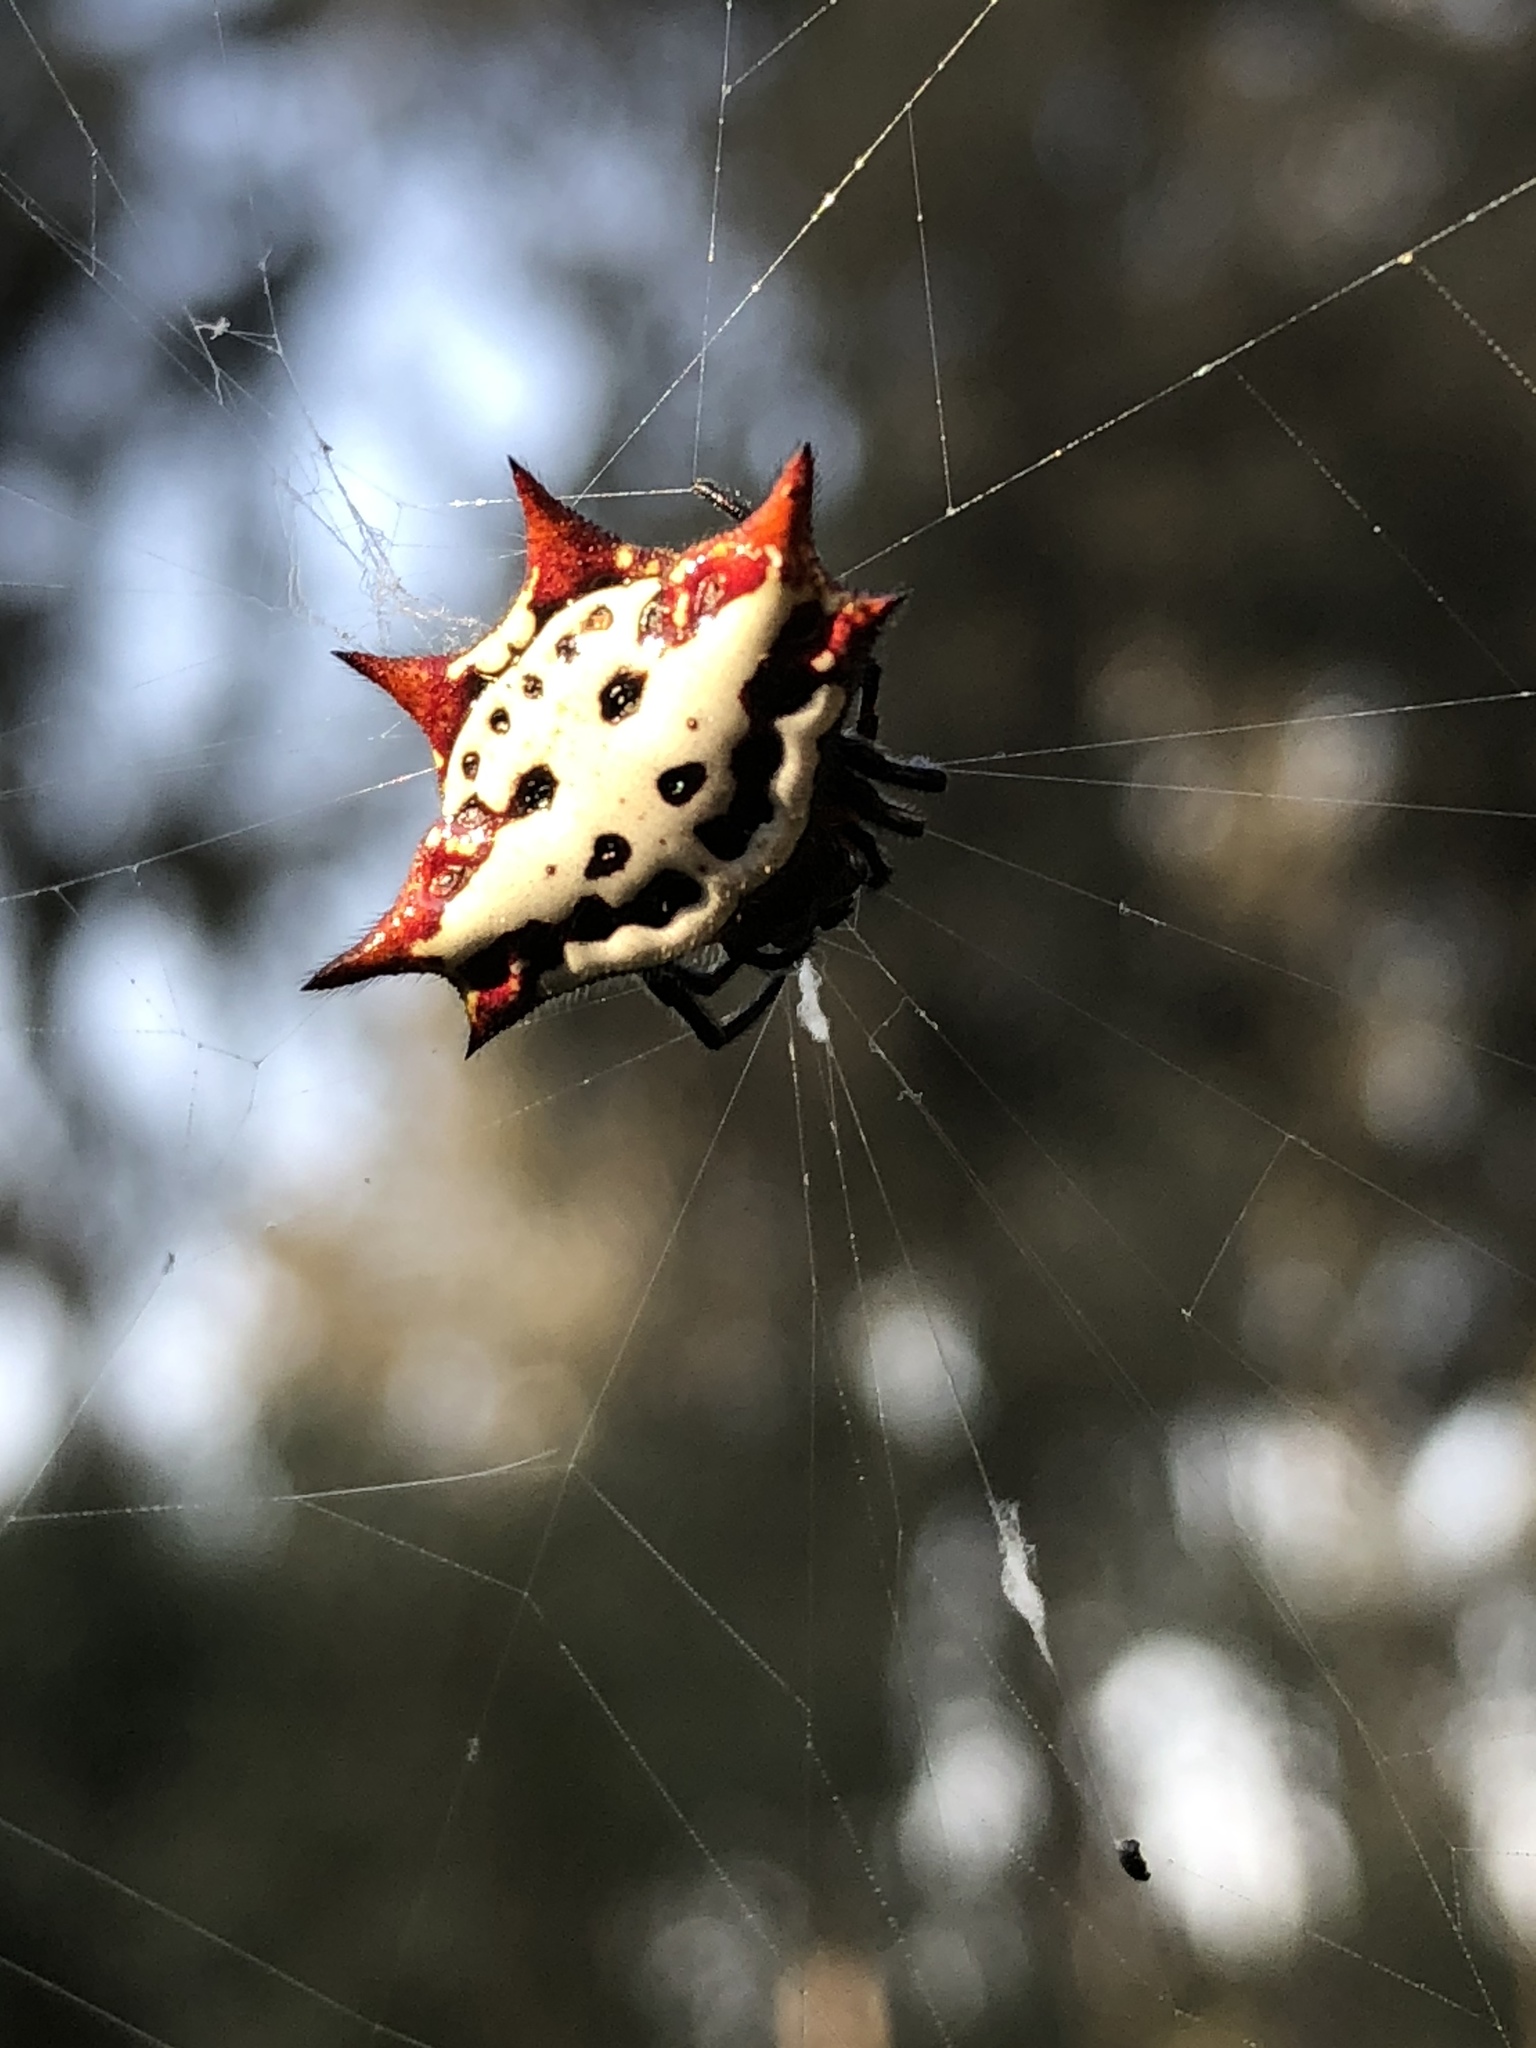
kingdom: Animalia
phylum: Arthropoda
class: Arachnida
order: Araneae
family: Araneidae
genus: Gasteracantha
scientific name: Gasteracantha cancriformis
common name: Orb weavers
